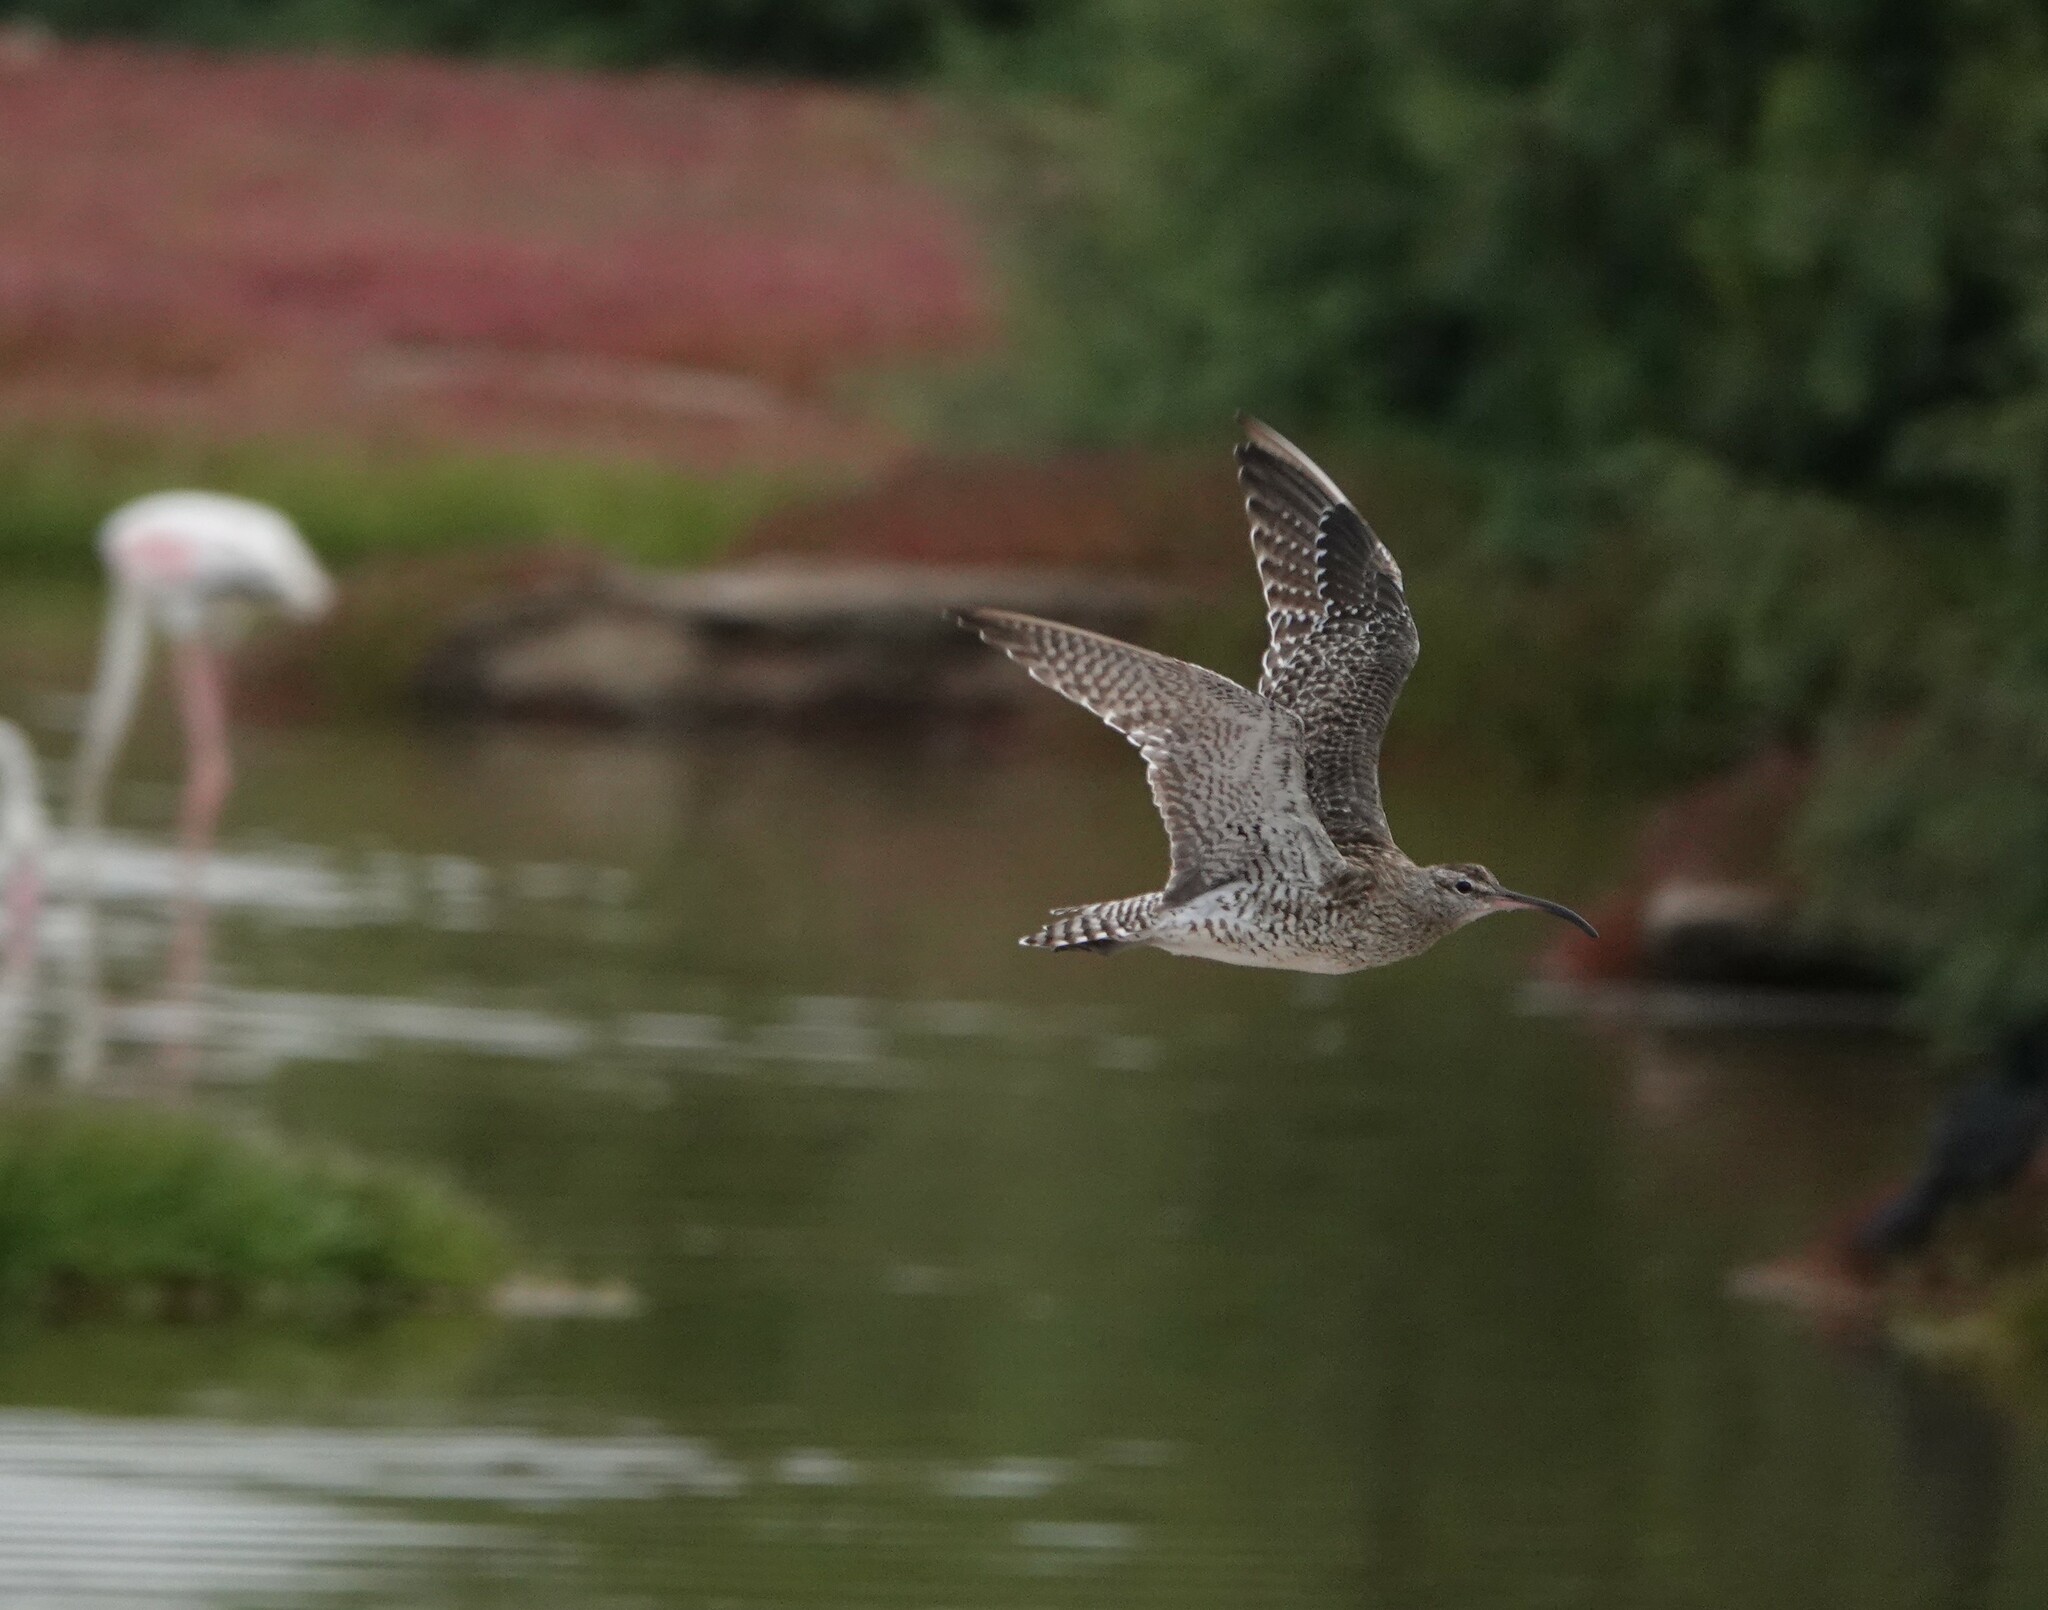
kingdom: Animalia
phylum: Chordata
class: Aves
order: Charadriiformes
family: Scolopacidae
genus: Numenius
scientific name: Numenius phaeopus
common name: Whimbrel
